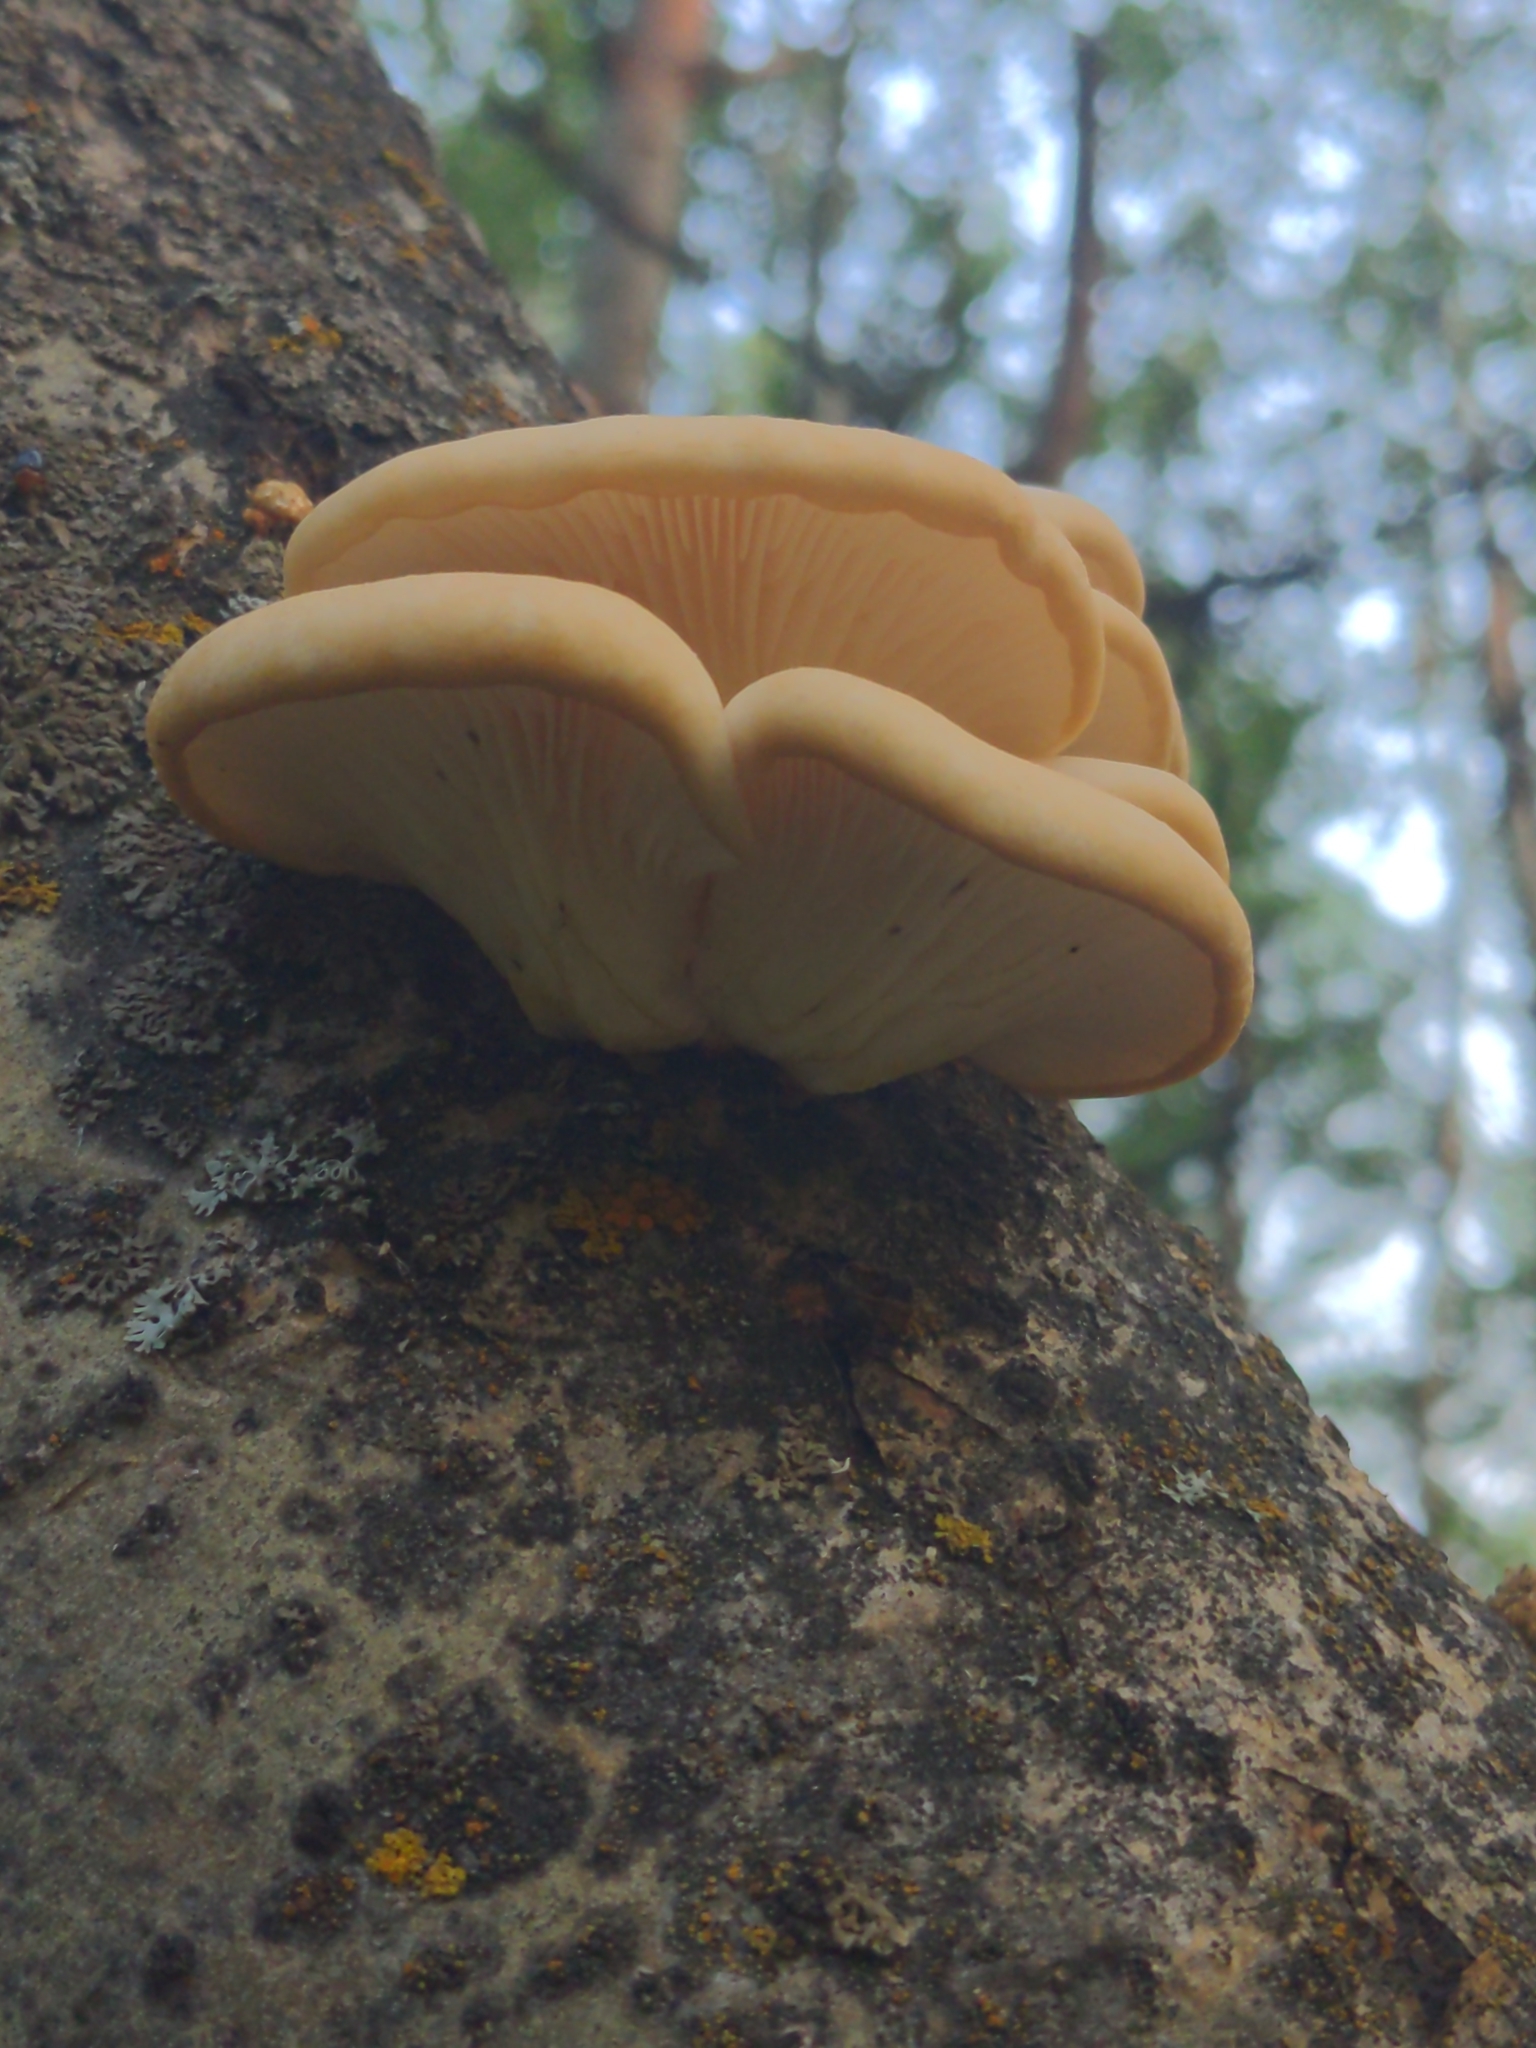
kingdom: Fungi
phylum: Basidiomycota
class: Agaricomycetes
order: Agaricales
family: Pleurotaceae
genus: Pleurotus
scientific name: Pleurotus populinus
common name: Aspen oyster mushroom
